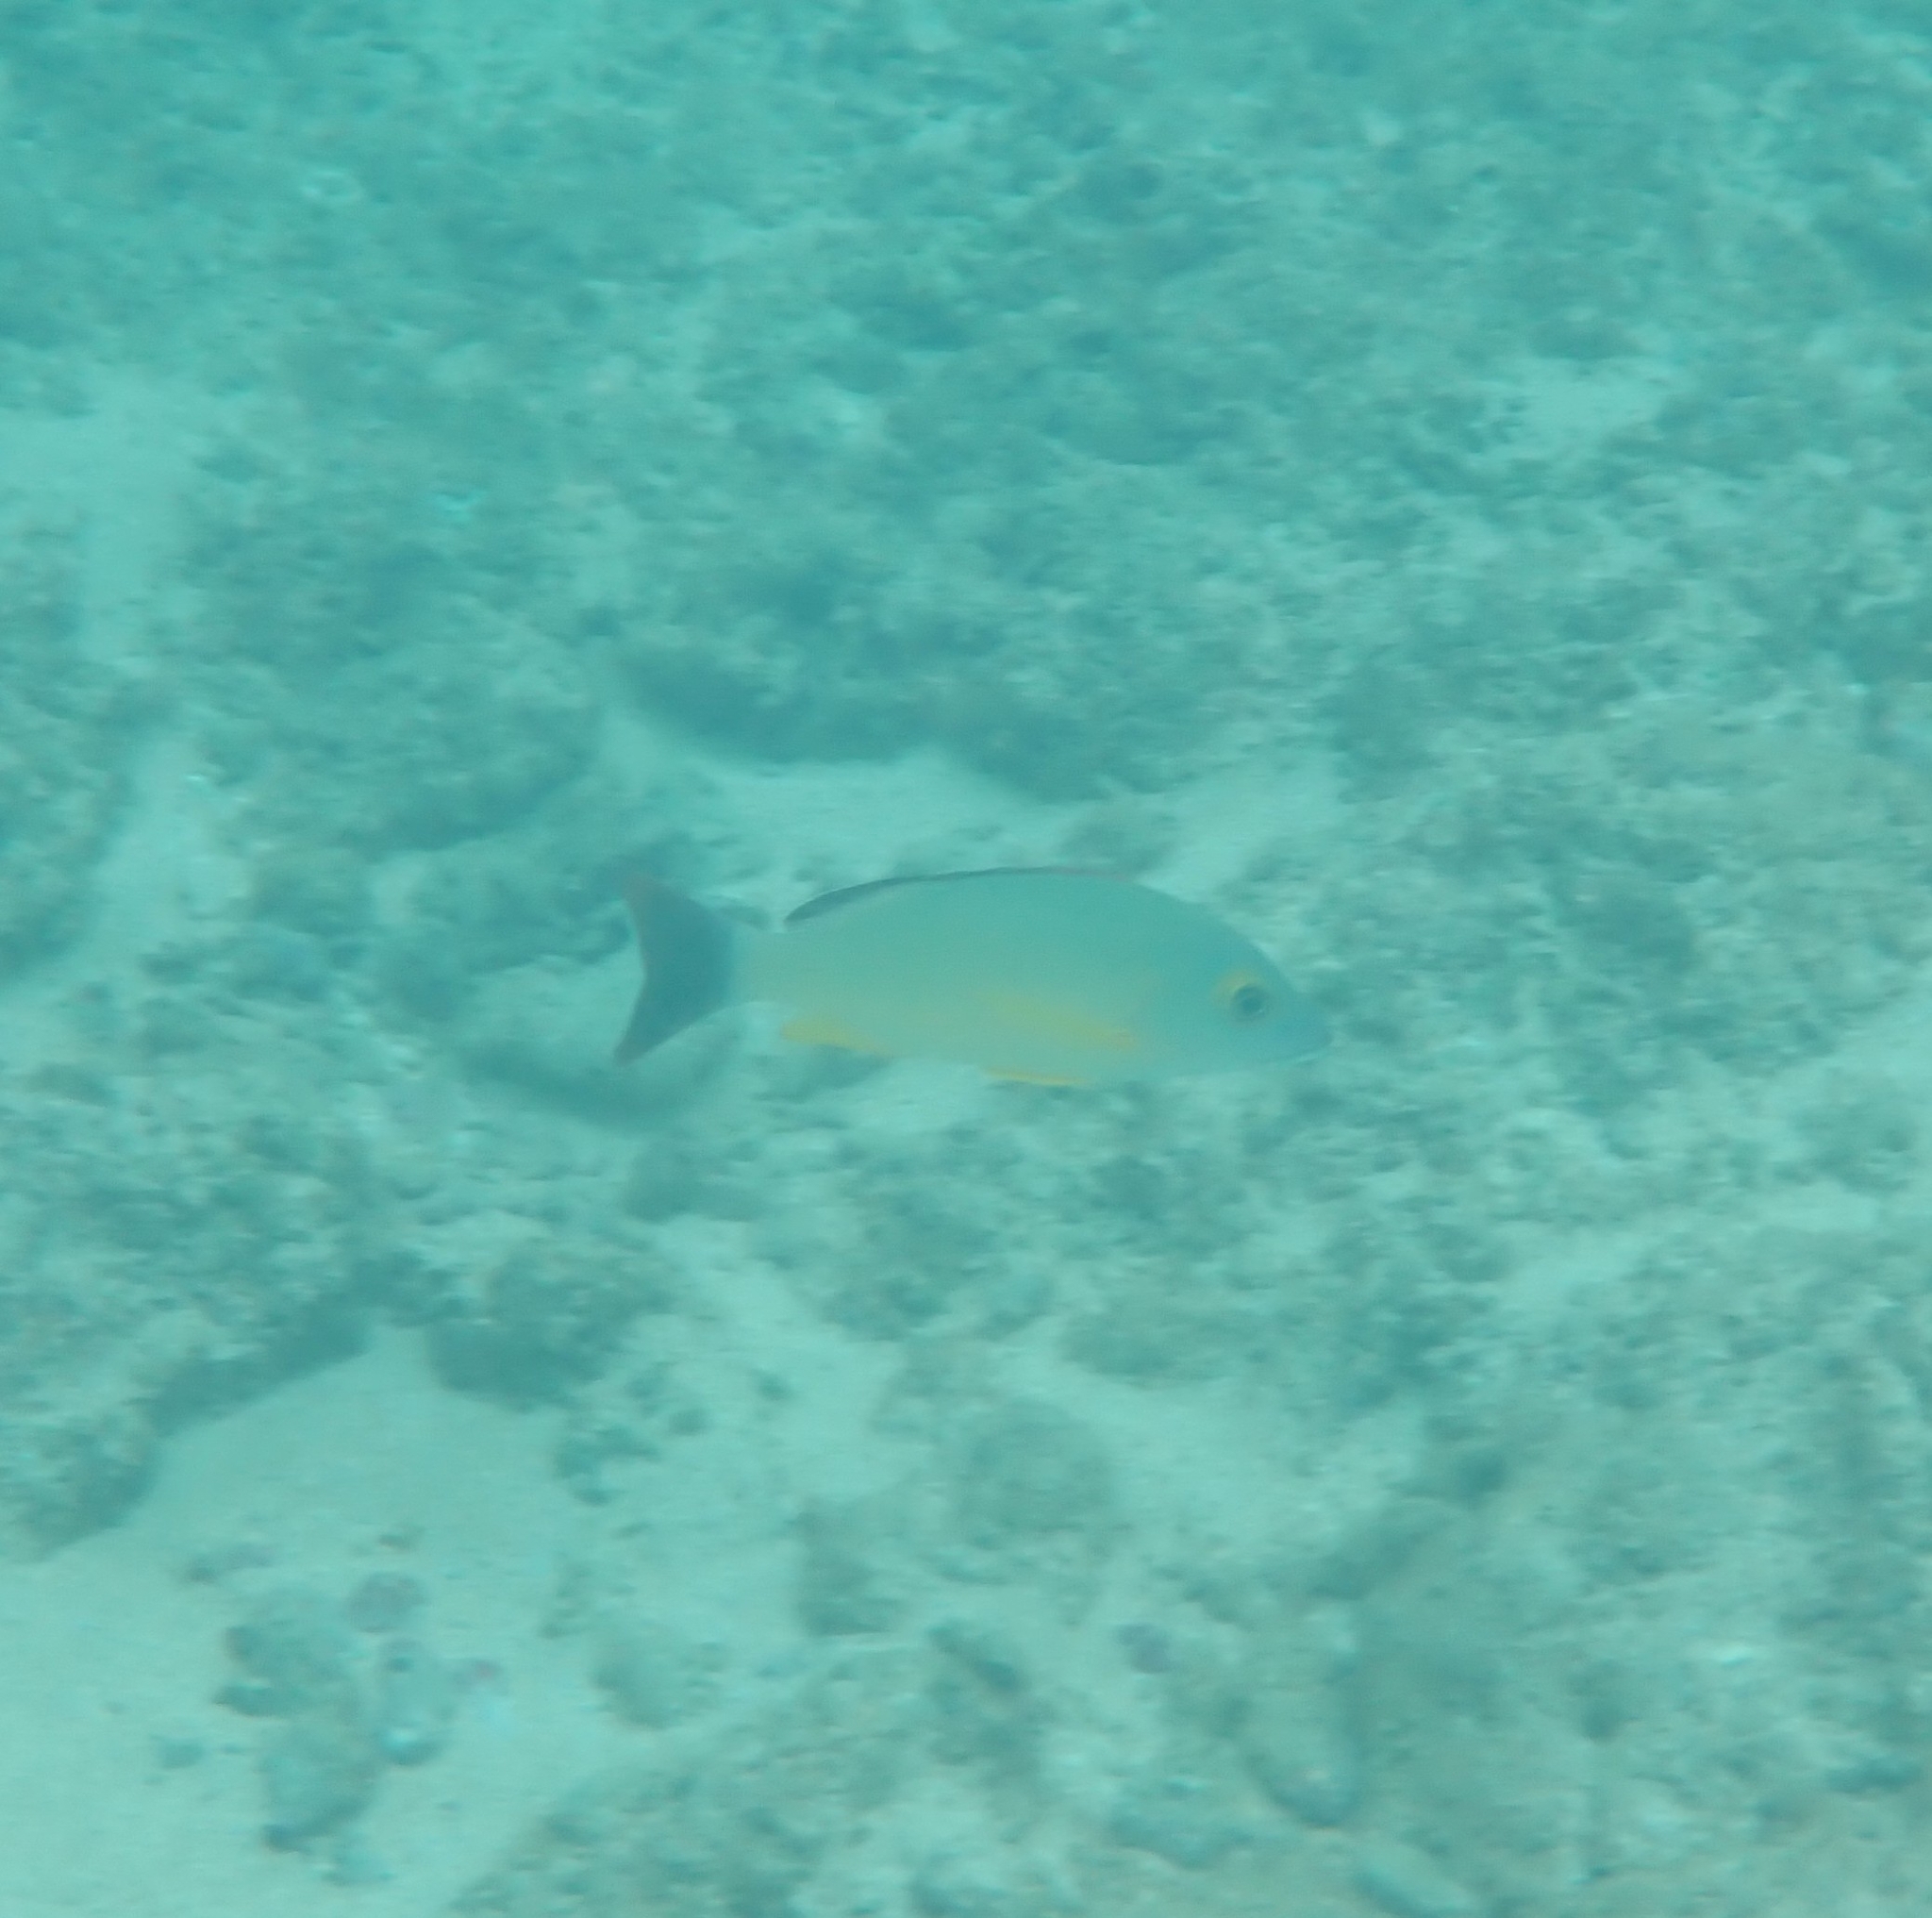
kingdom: Animalia
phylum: Chordata
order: Perciformes
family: Lutjanidae
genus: Lutjanus
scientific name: Lutjanus fulvus
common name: Blacktail snapper
